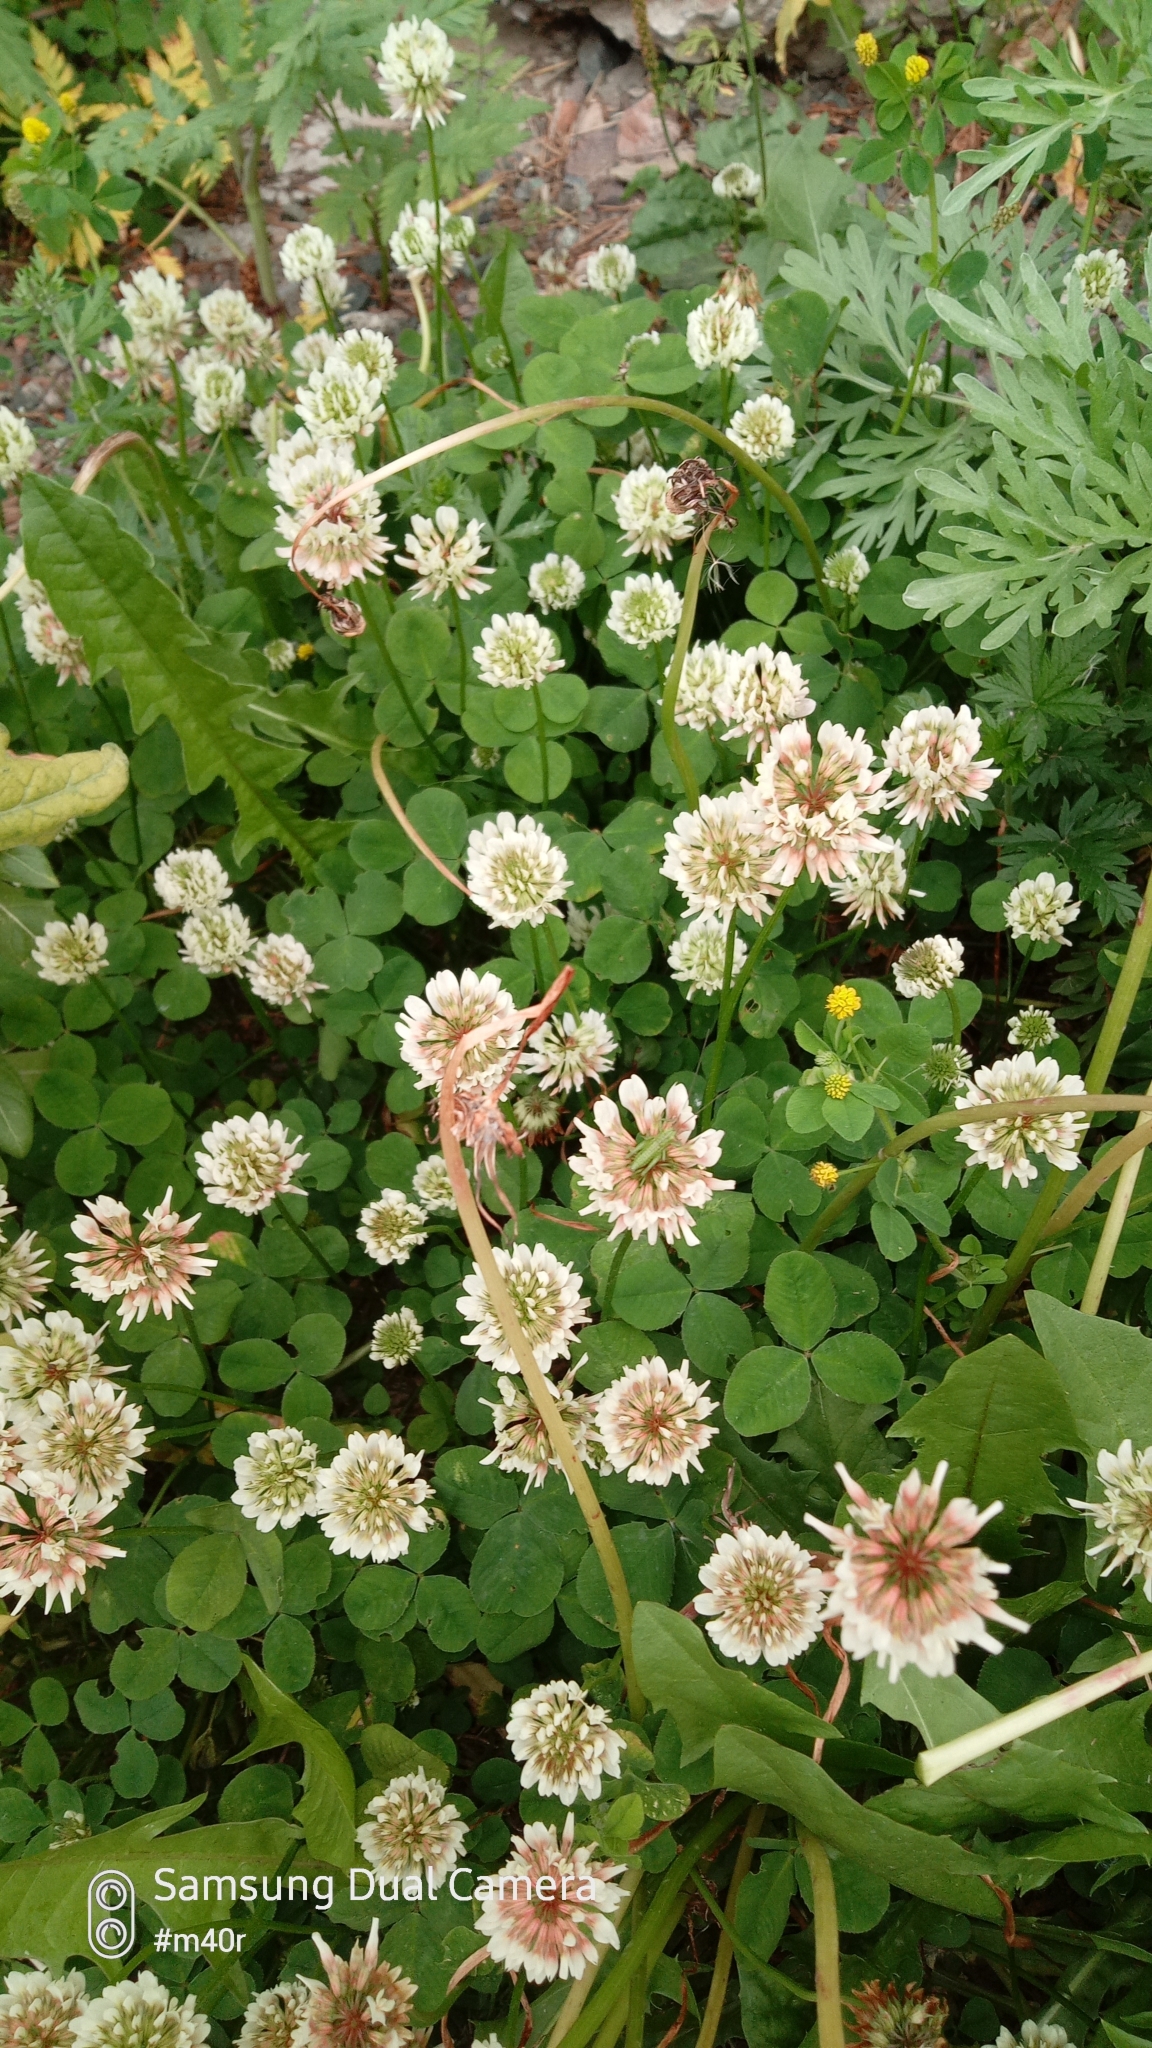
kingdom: Plantae
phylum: Tracheophyta
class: Magnoliopsida
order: Fabales
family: Fabaceae
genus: Trifolium
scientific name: Trifolium repens
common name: White clover
